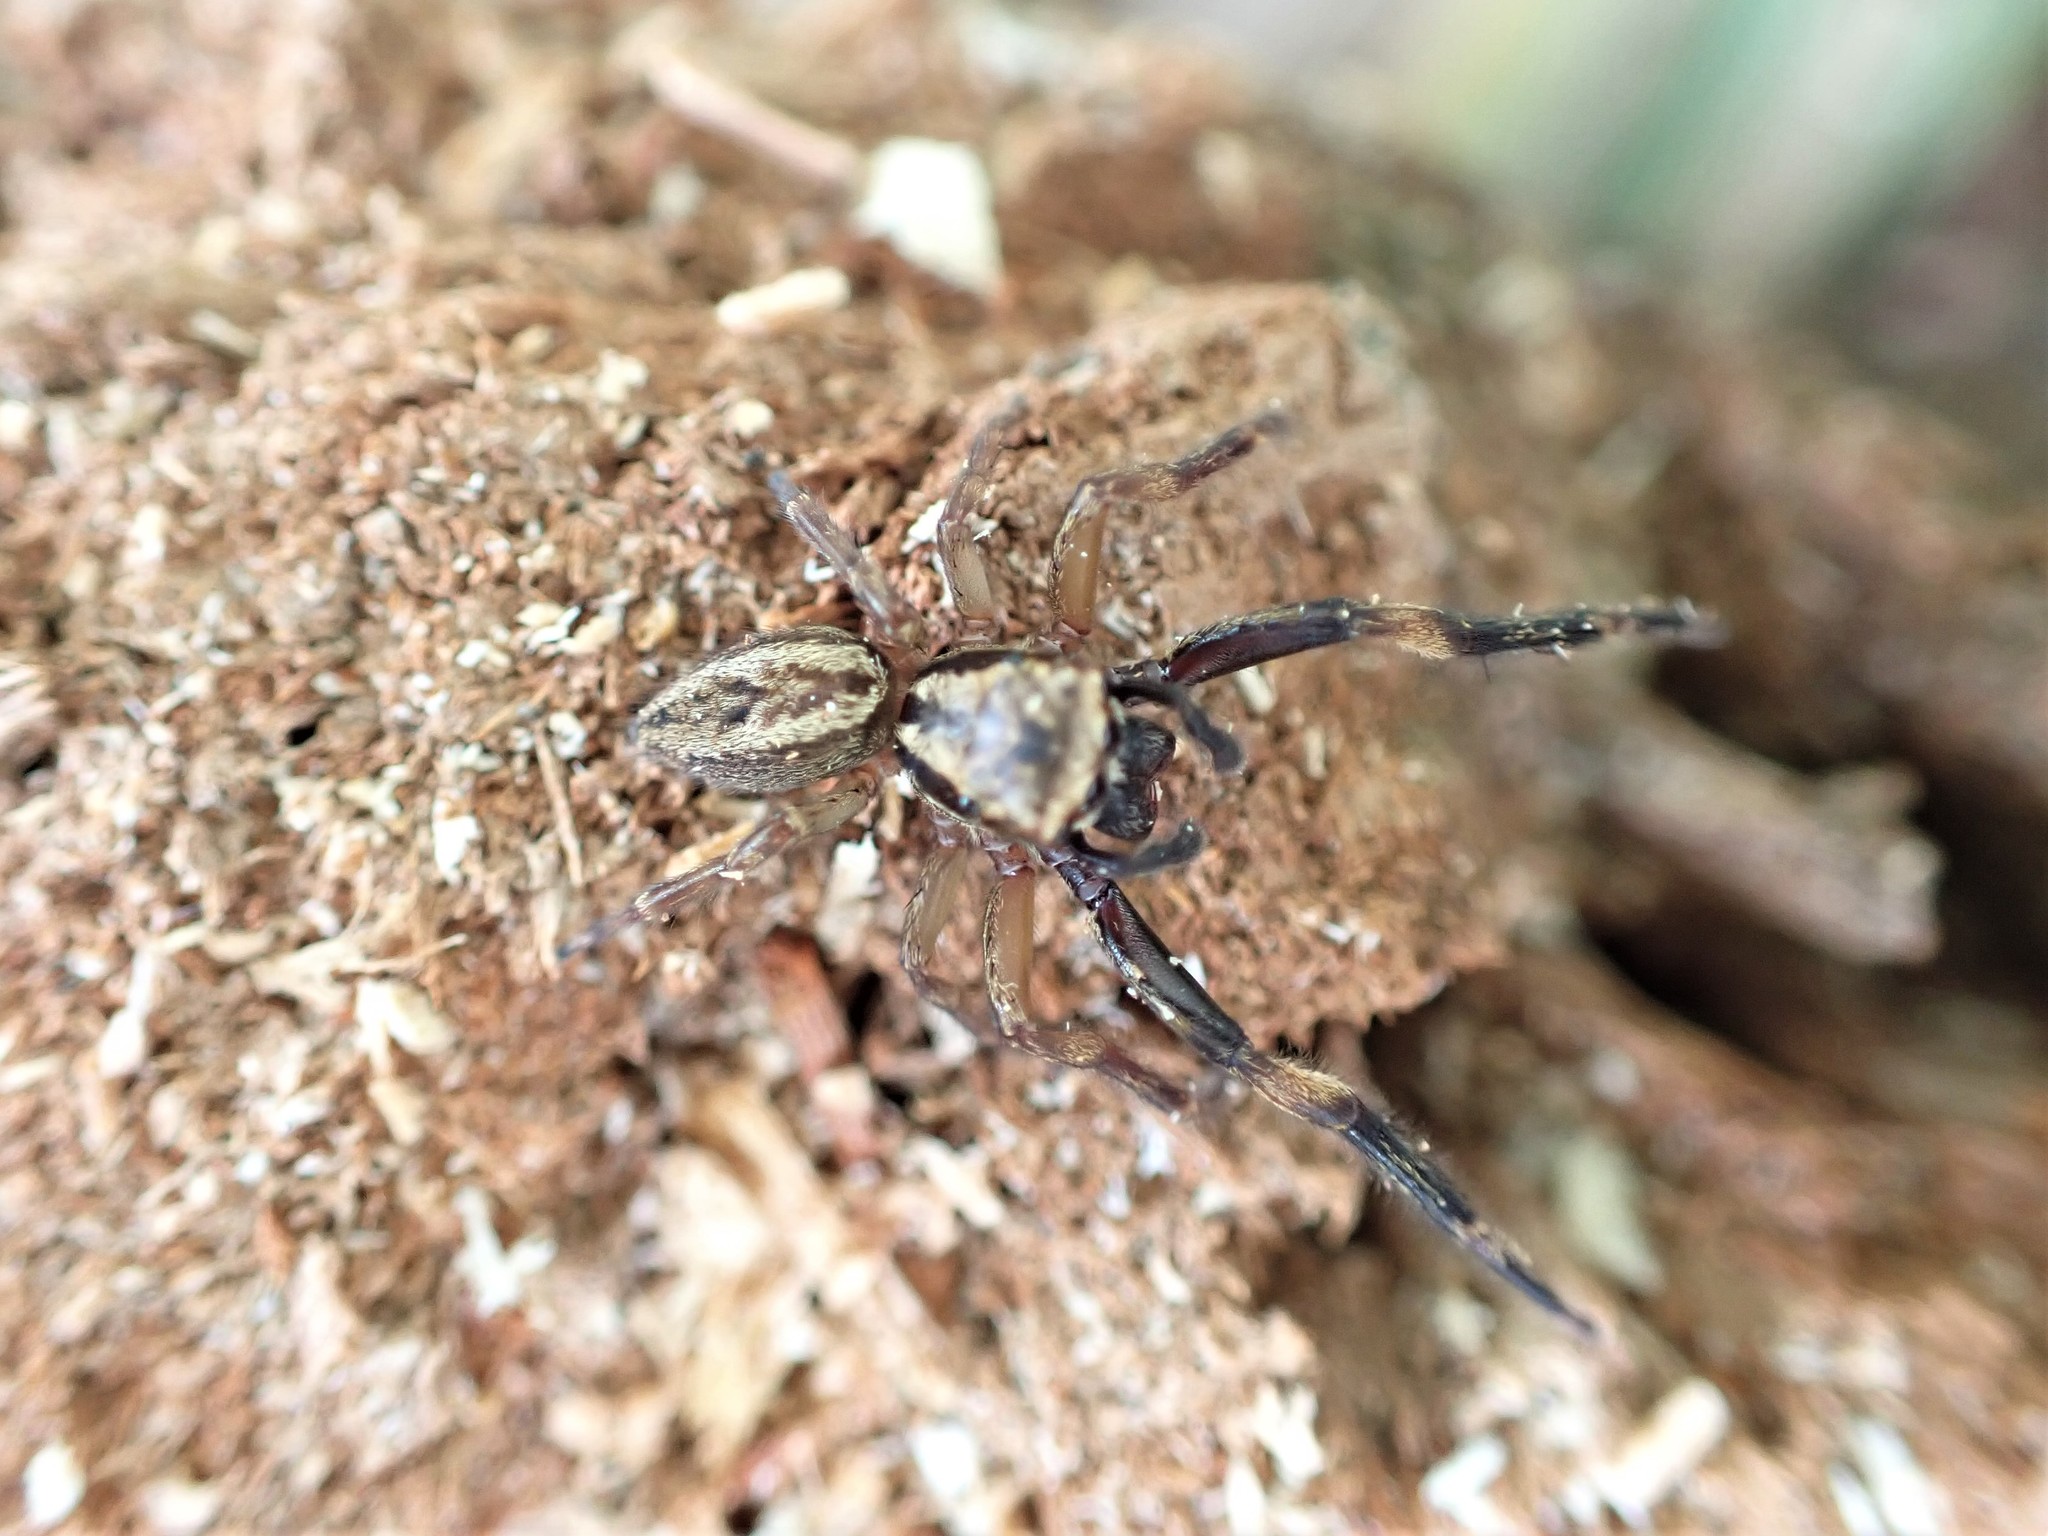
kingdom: Animalia
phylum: Arthropoda
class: Arachnida
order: Araneae
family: Salticidae
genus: Trite
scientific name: Trite auricoma
